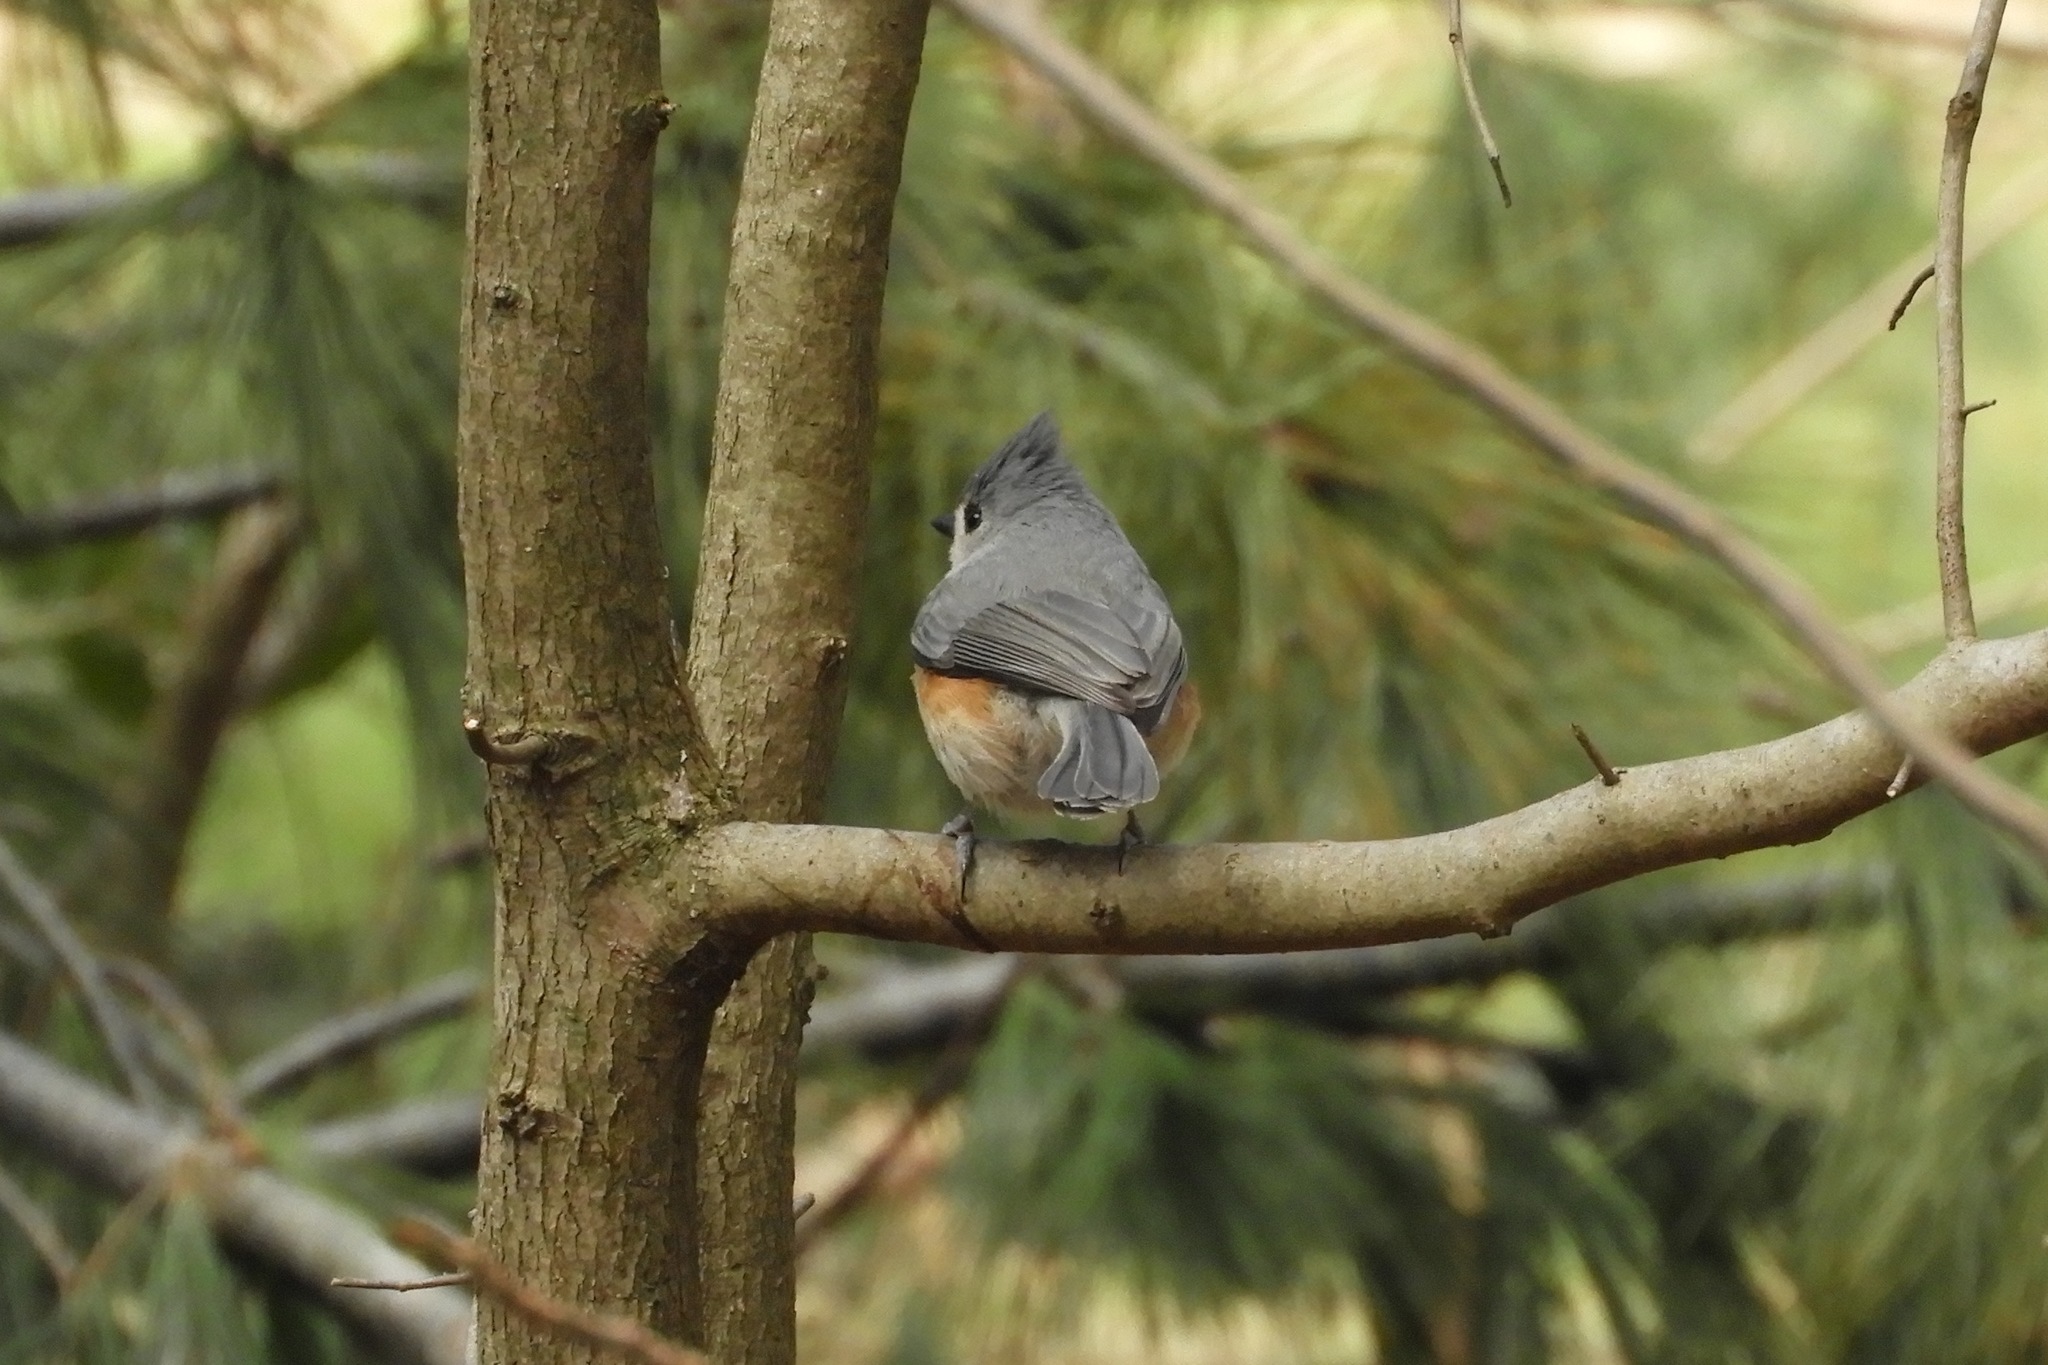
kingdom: Animalia
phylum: Chordata
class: Aves
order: Passeriformes
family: Paridae
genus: Baeolophus
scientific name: Baeolophus bicolor
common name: Tufted titmouse
